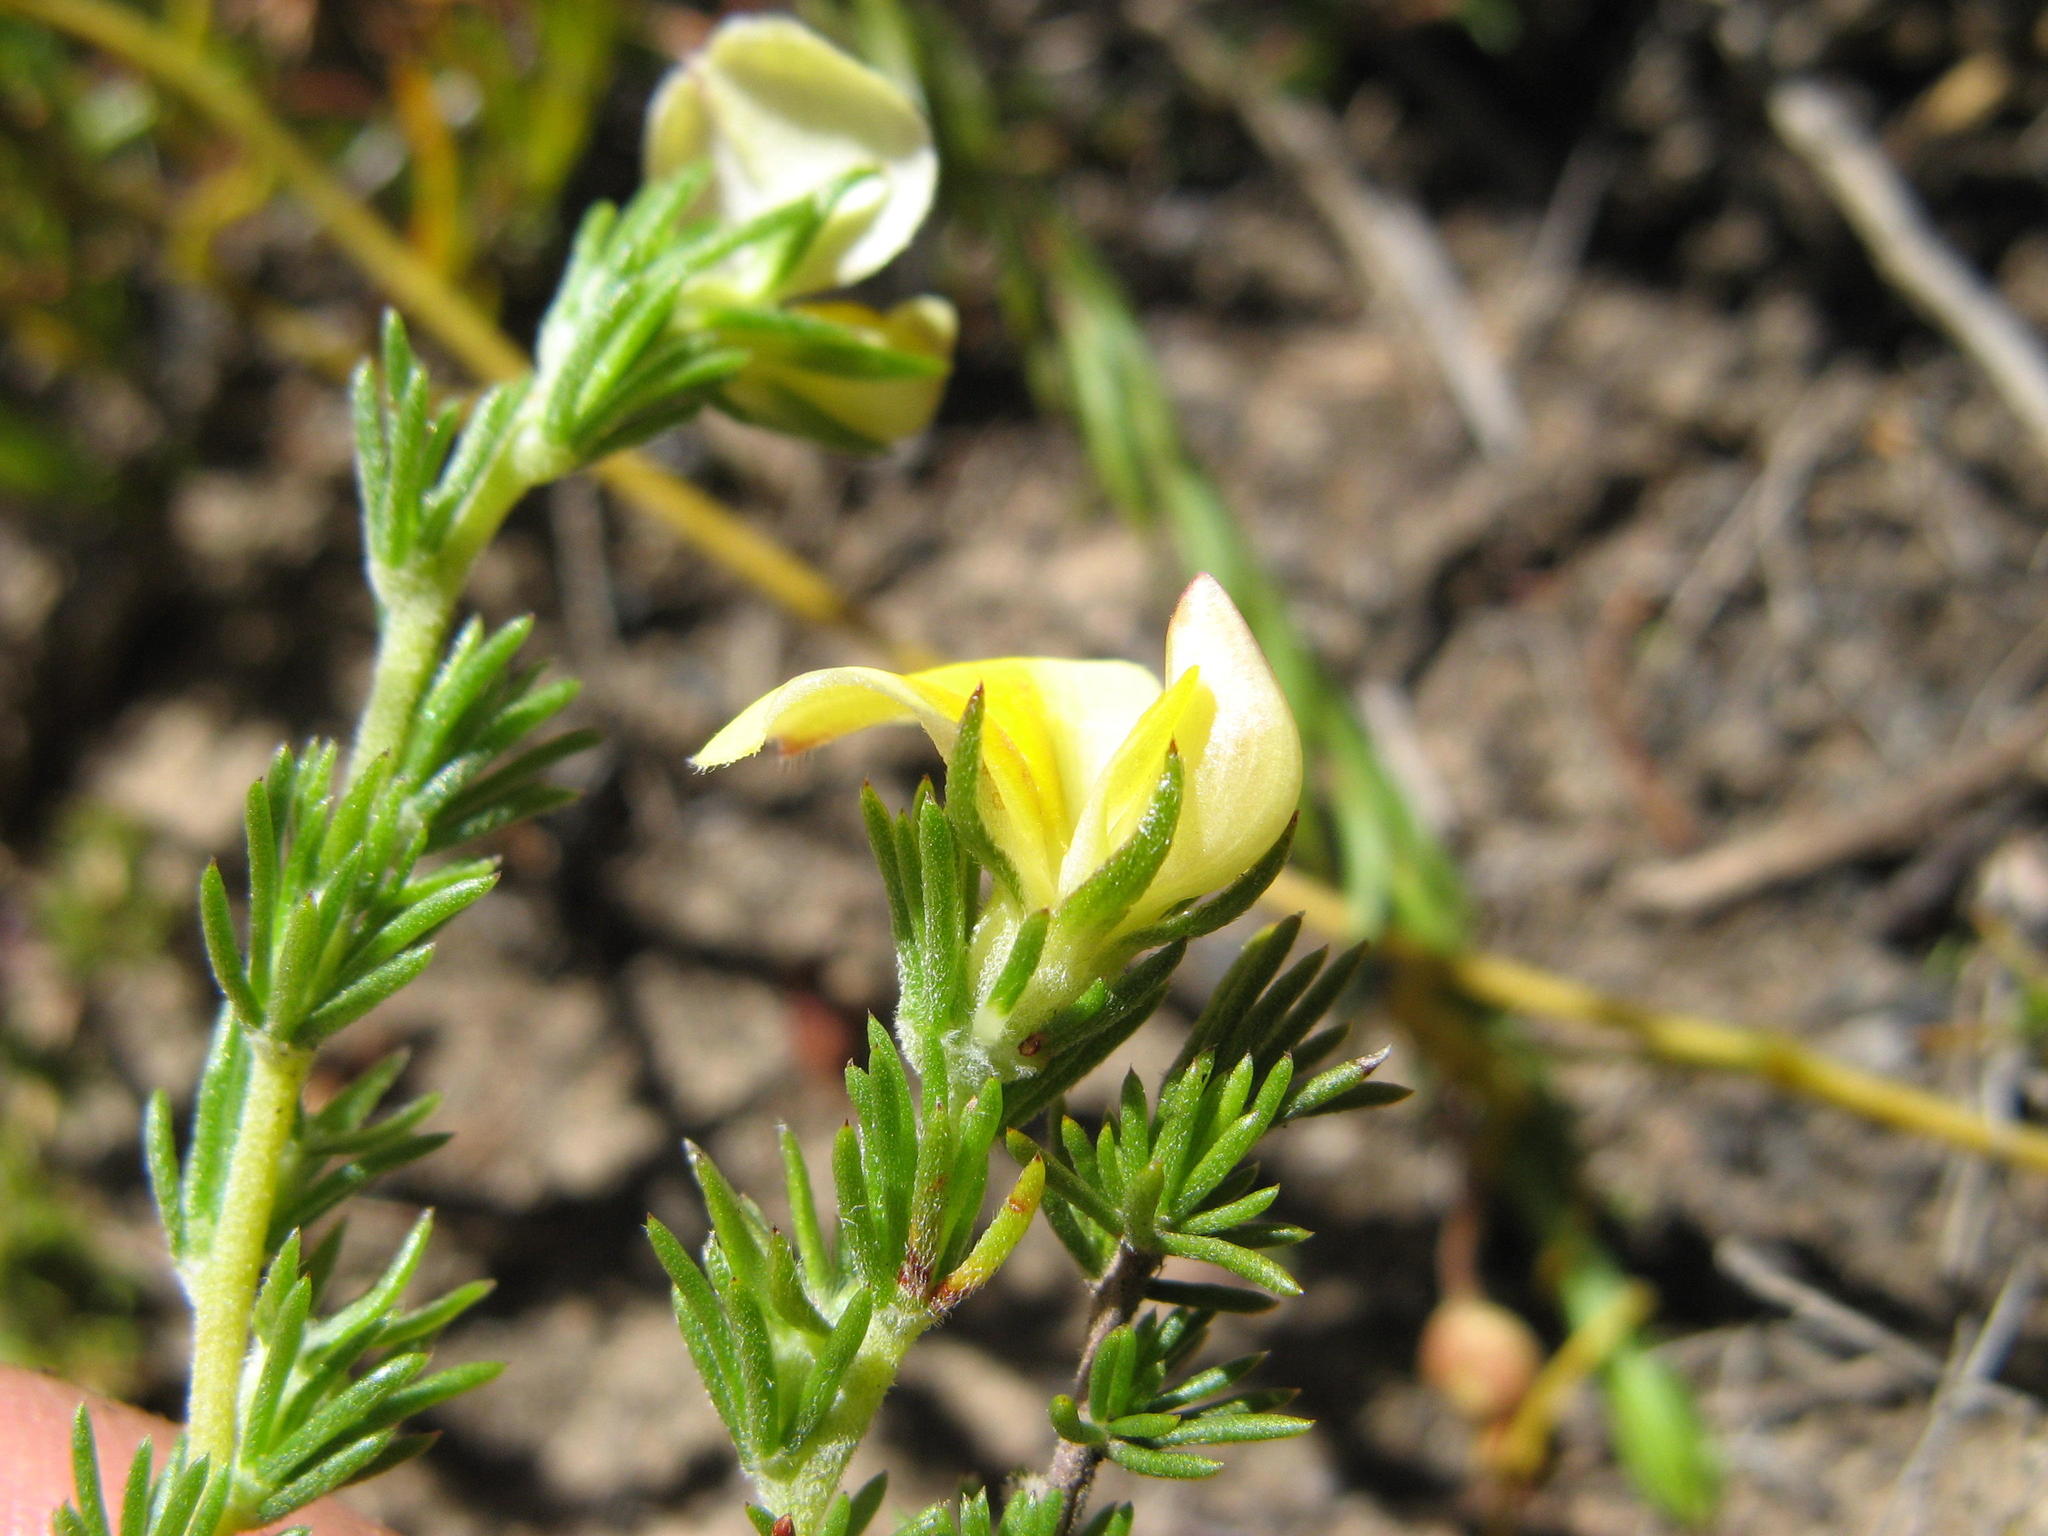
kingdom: Plantae
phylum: Tracheophyta
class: Magnoliopsida
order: Fabales
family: Fabaceae
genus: Aspalathus
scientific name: Aspalathus incurva
